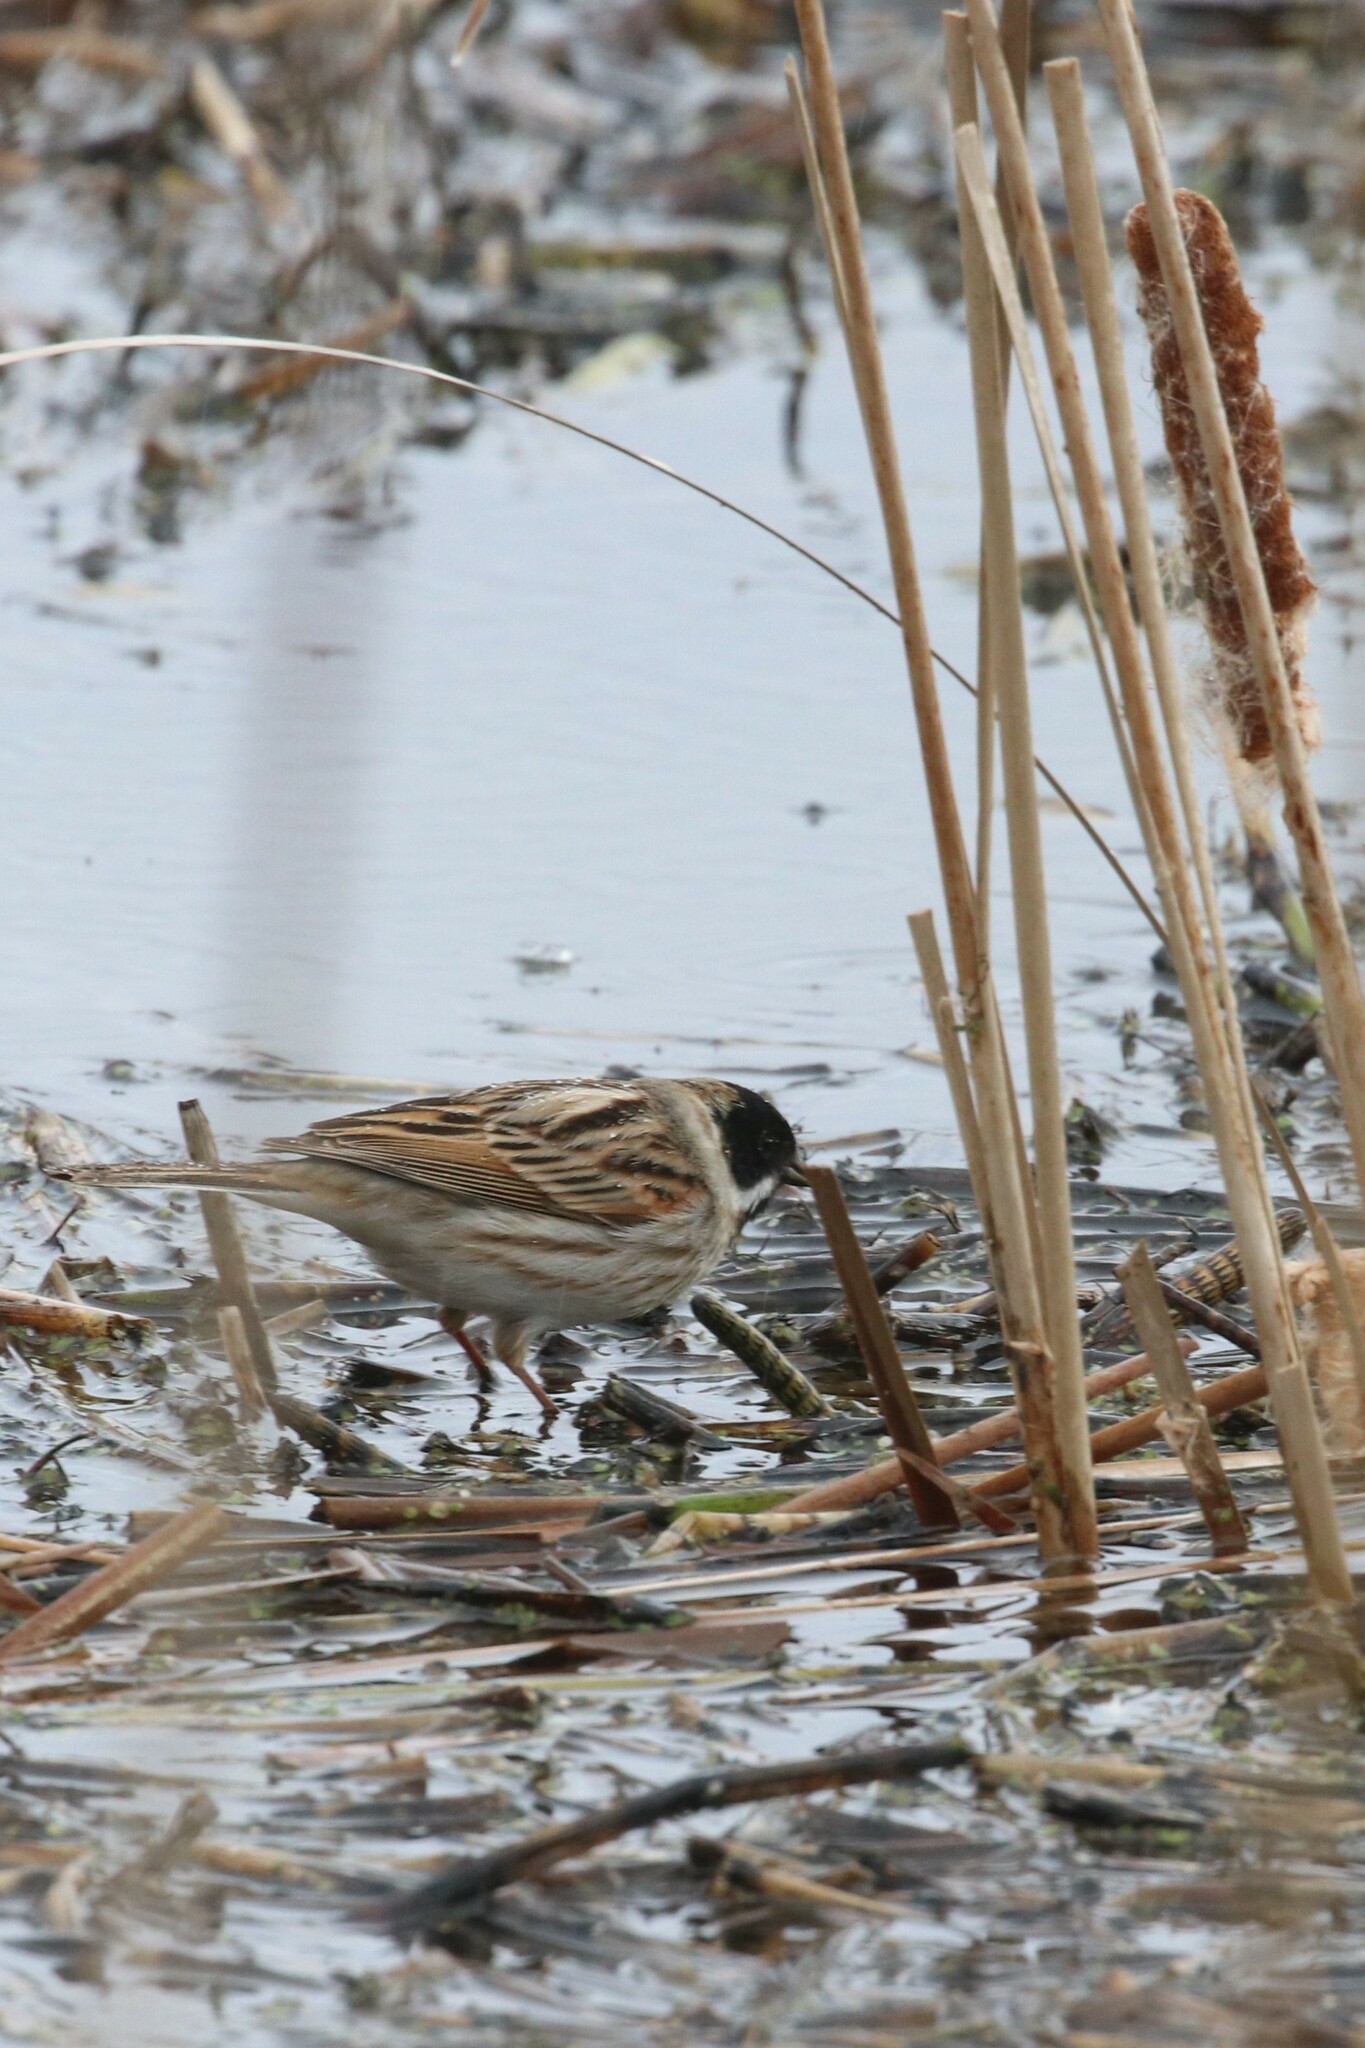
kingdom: Animalia
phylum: Chordata
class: Aves
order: Passeriformes
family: Emberizidae
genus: Emberiza
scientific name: Emberiza schoeniclus
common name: Reed bunting
